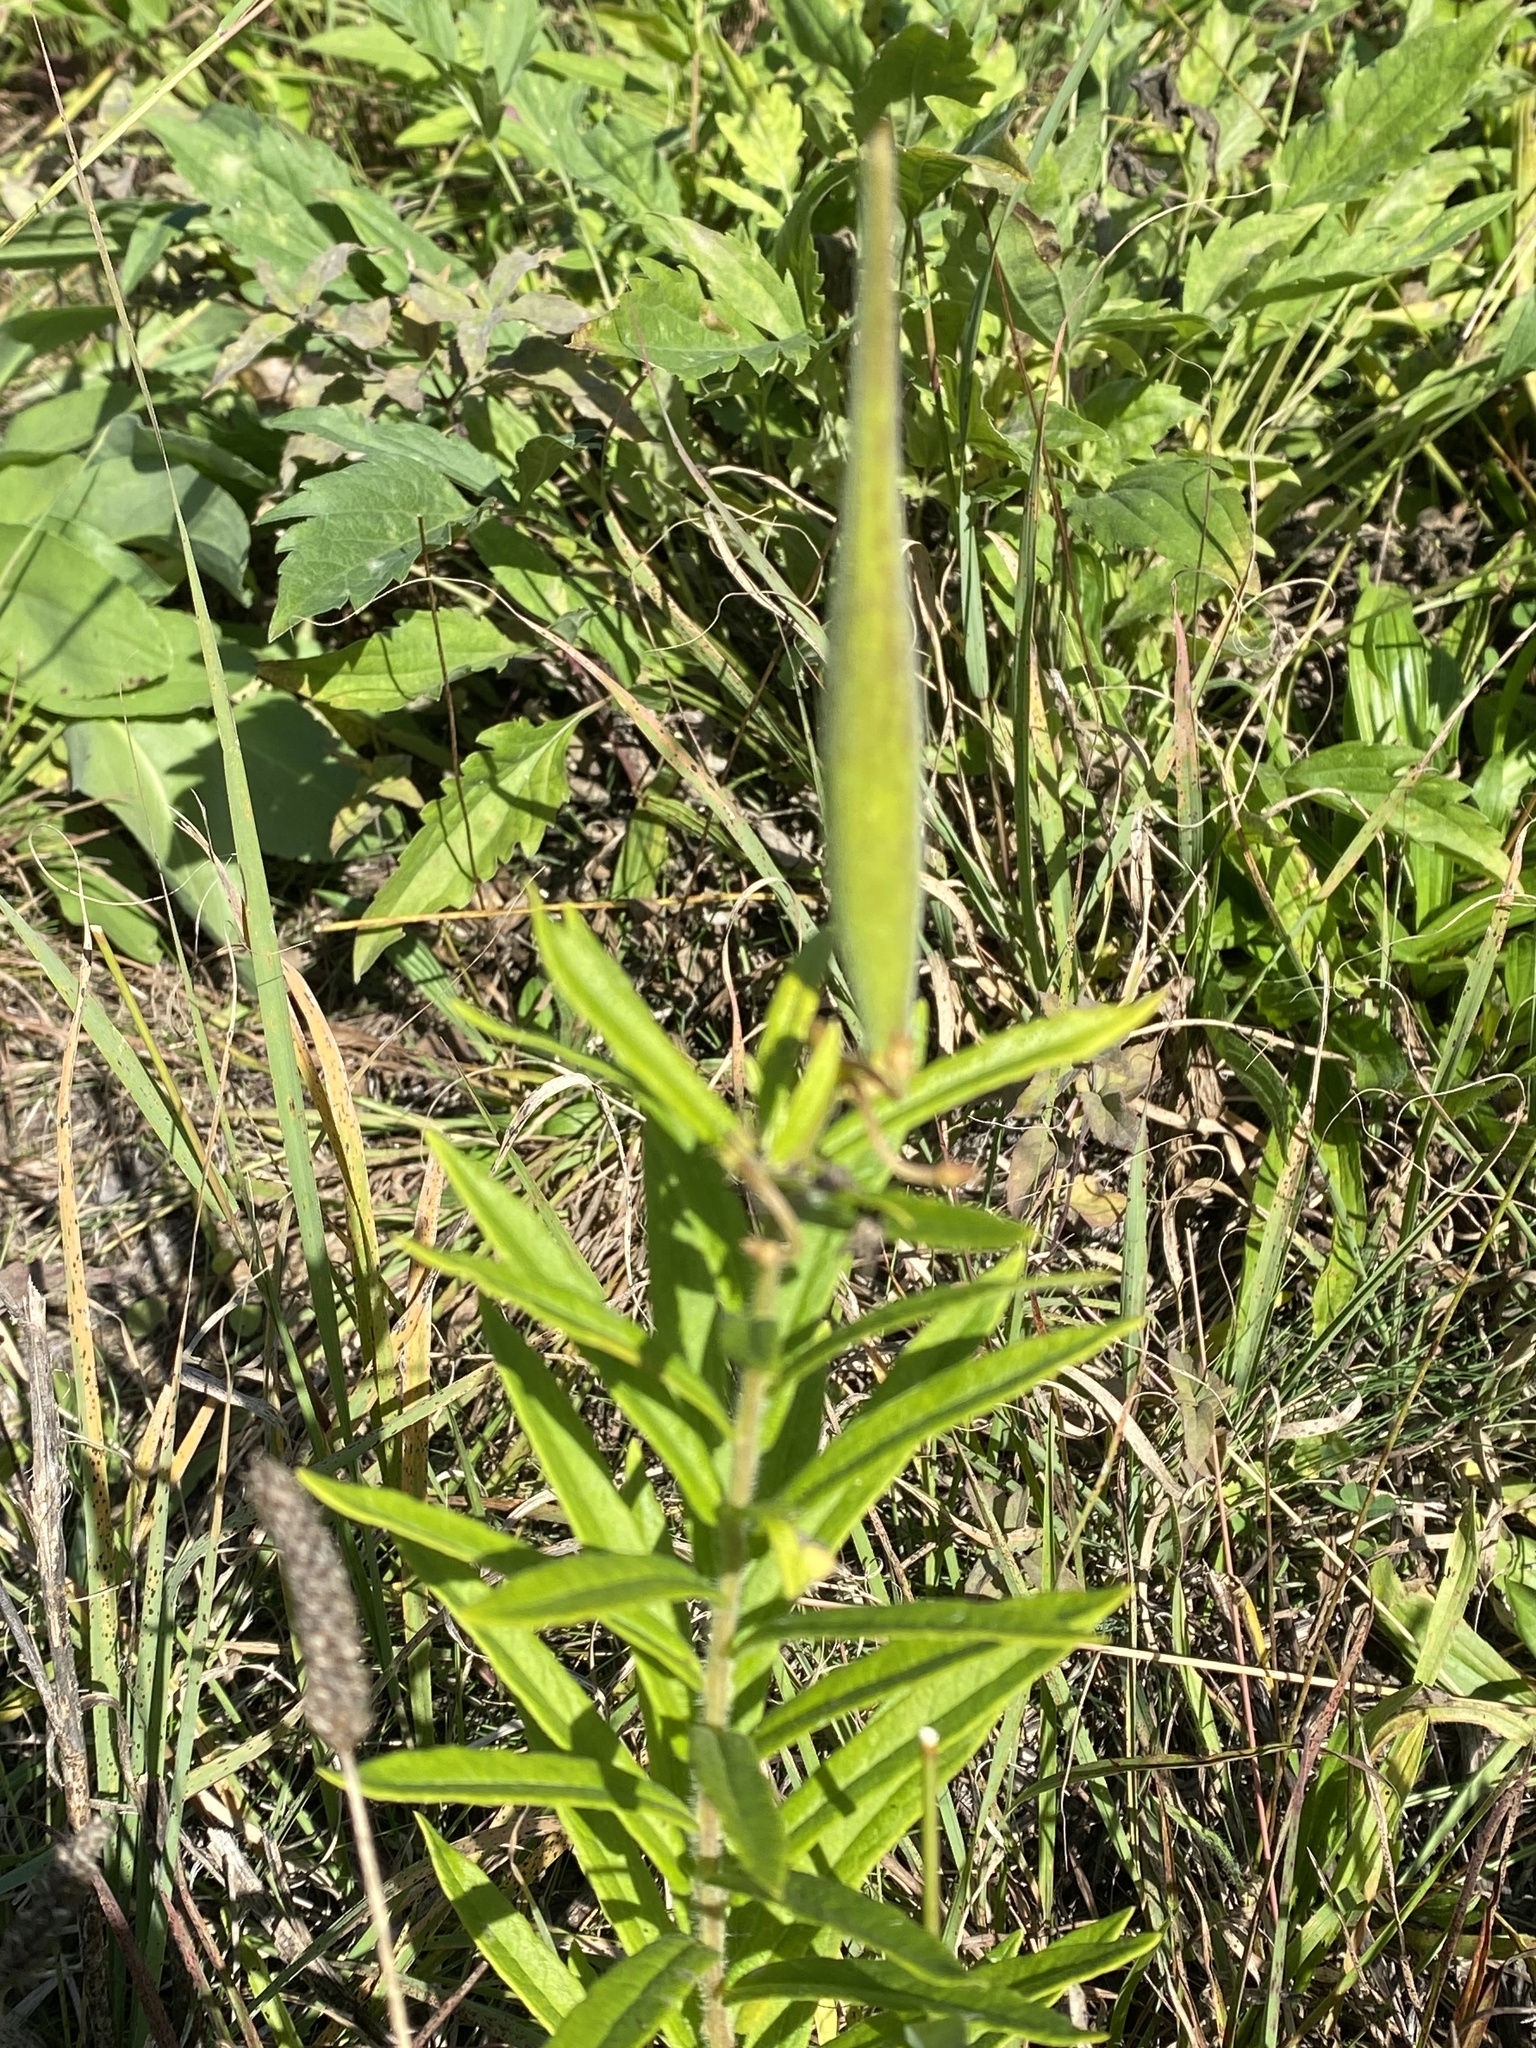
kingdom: Plantae
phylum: Tracheophyta
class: Magnoliopsida
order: Gentianales
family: Apocynaceae
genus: Asclepias
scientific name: Asclepias tuberosa
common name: Butterfly milkweed
